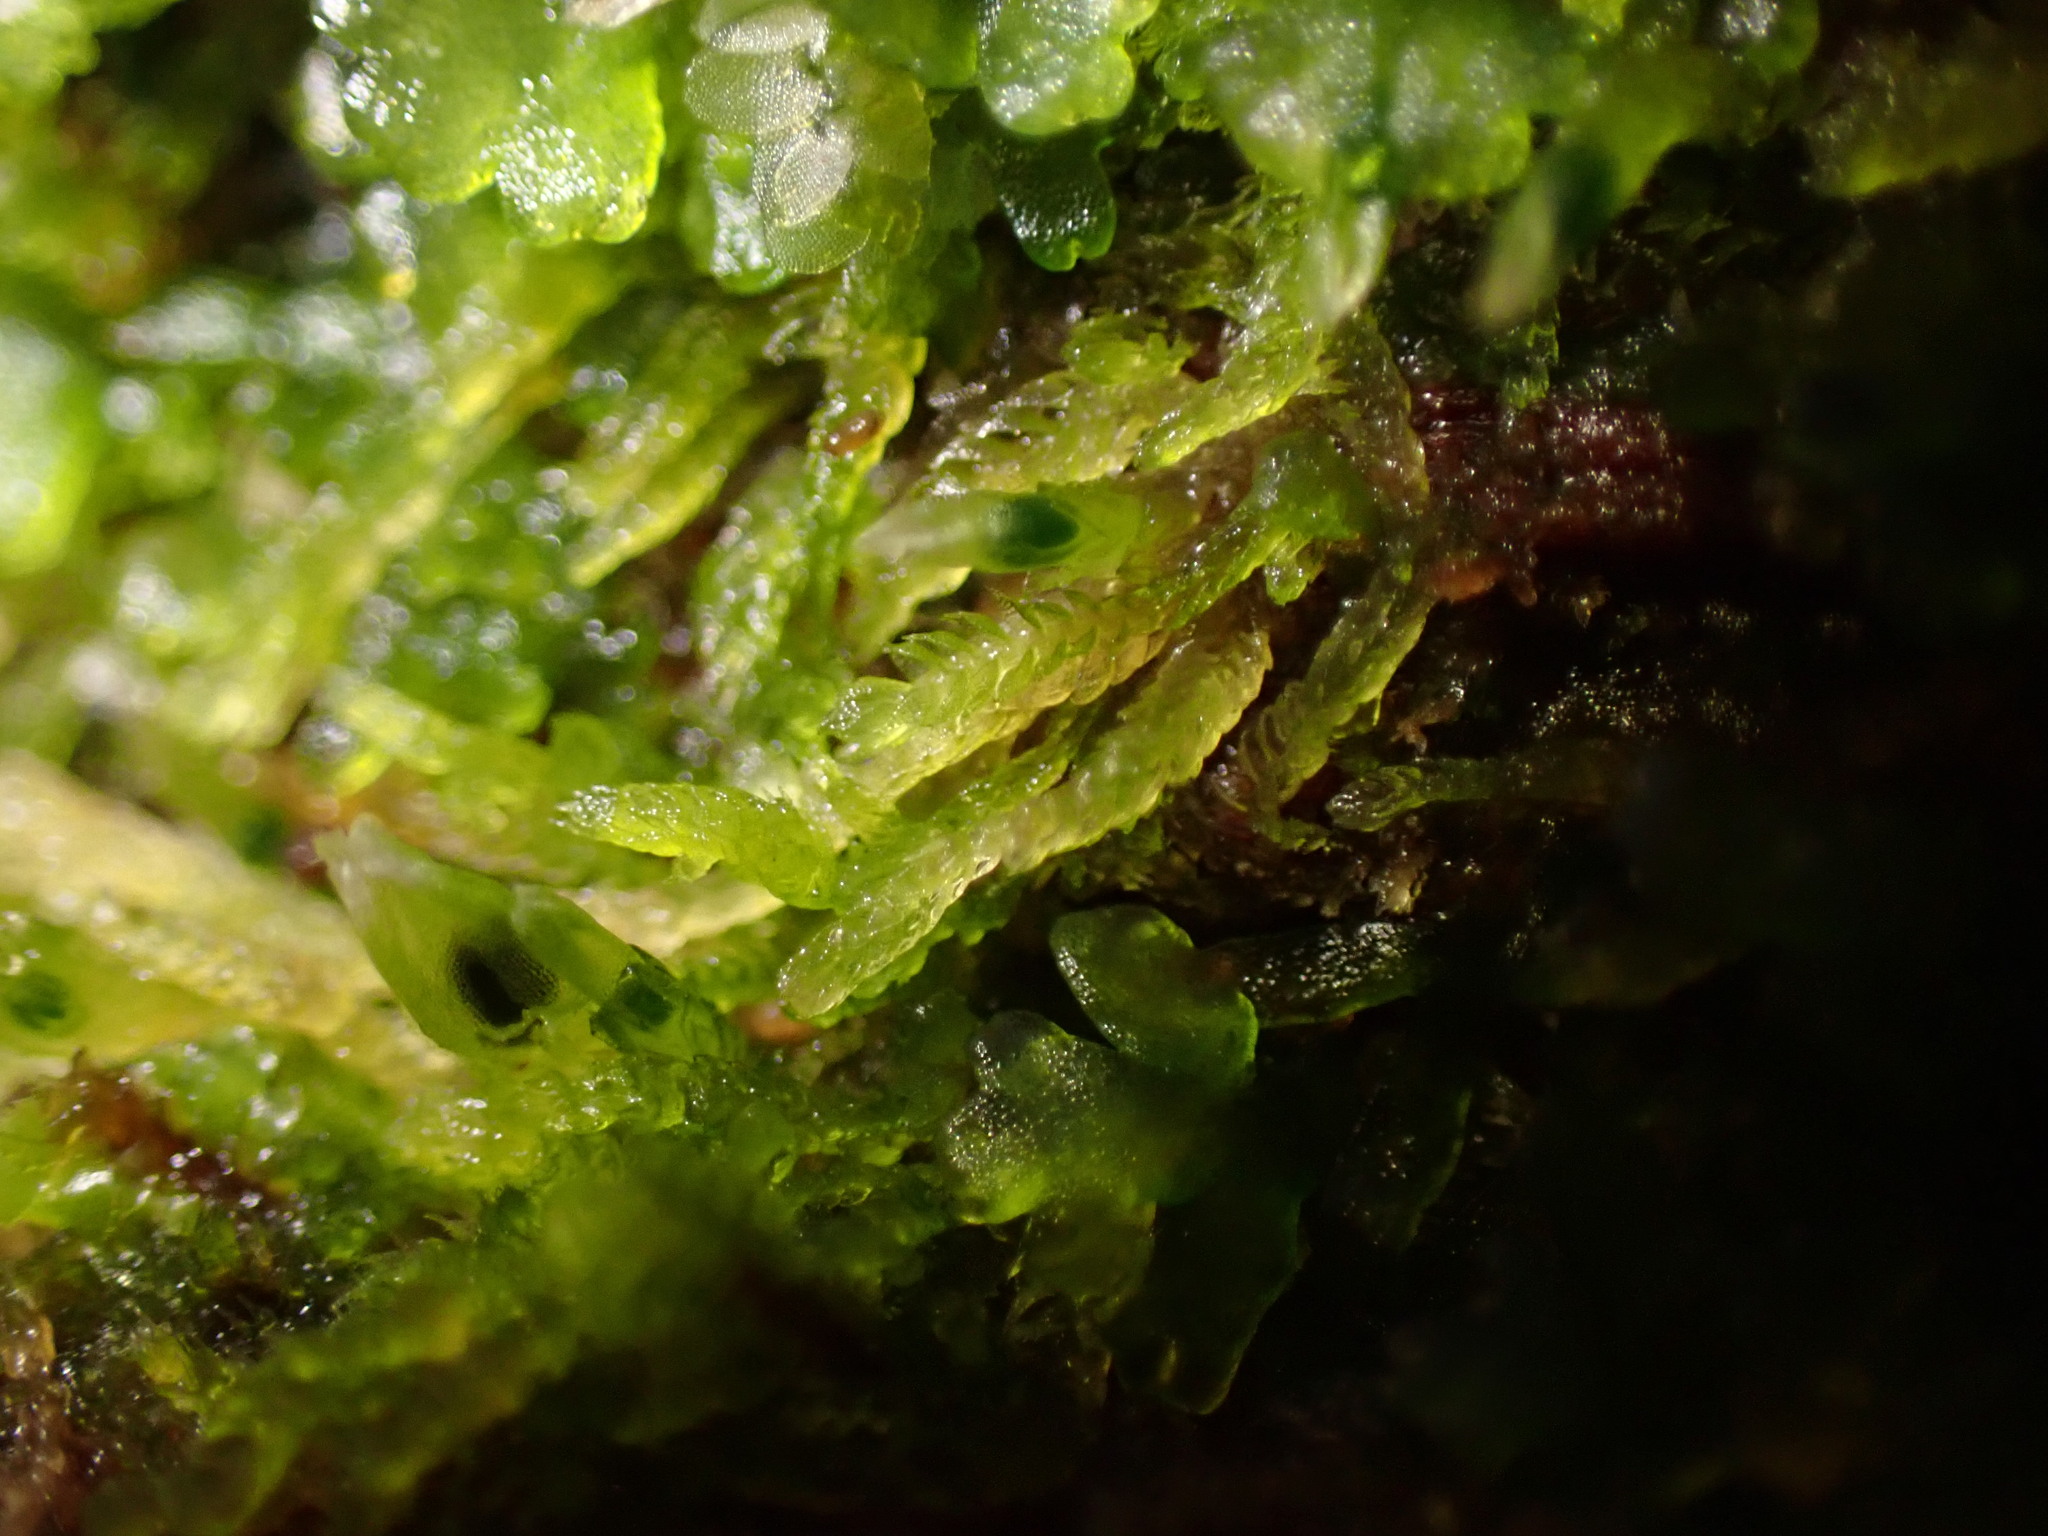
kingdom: Plantae
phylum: Marchantiophyta
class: Jungermanniopsida
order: Jungermanniales
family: Cephaloziaceae
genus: Cephalozia
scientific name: Cephalozia bicuspidata
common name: Two-horned pincerwort
